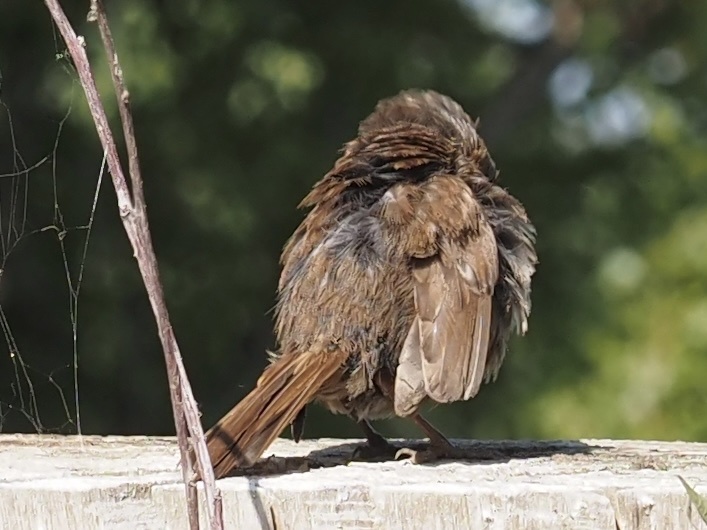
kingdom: Animalia
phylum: Chordata
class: Aves
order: Passeriformes
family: Passerellidae
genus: Melospiza
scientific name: Melospiza melodia
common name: Song sparrow
